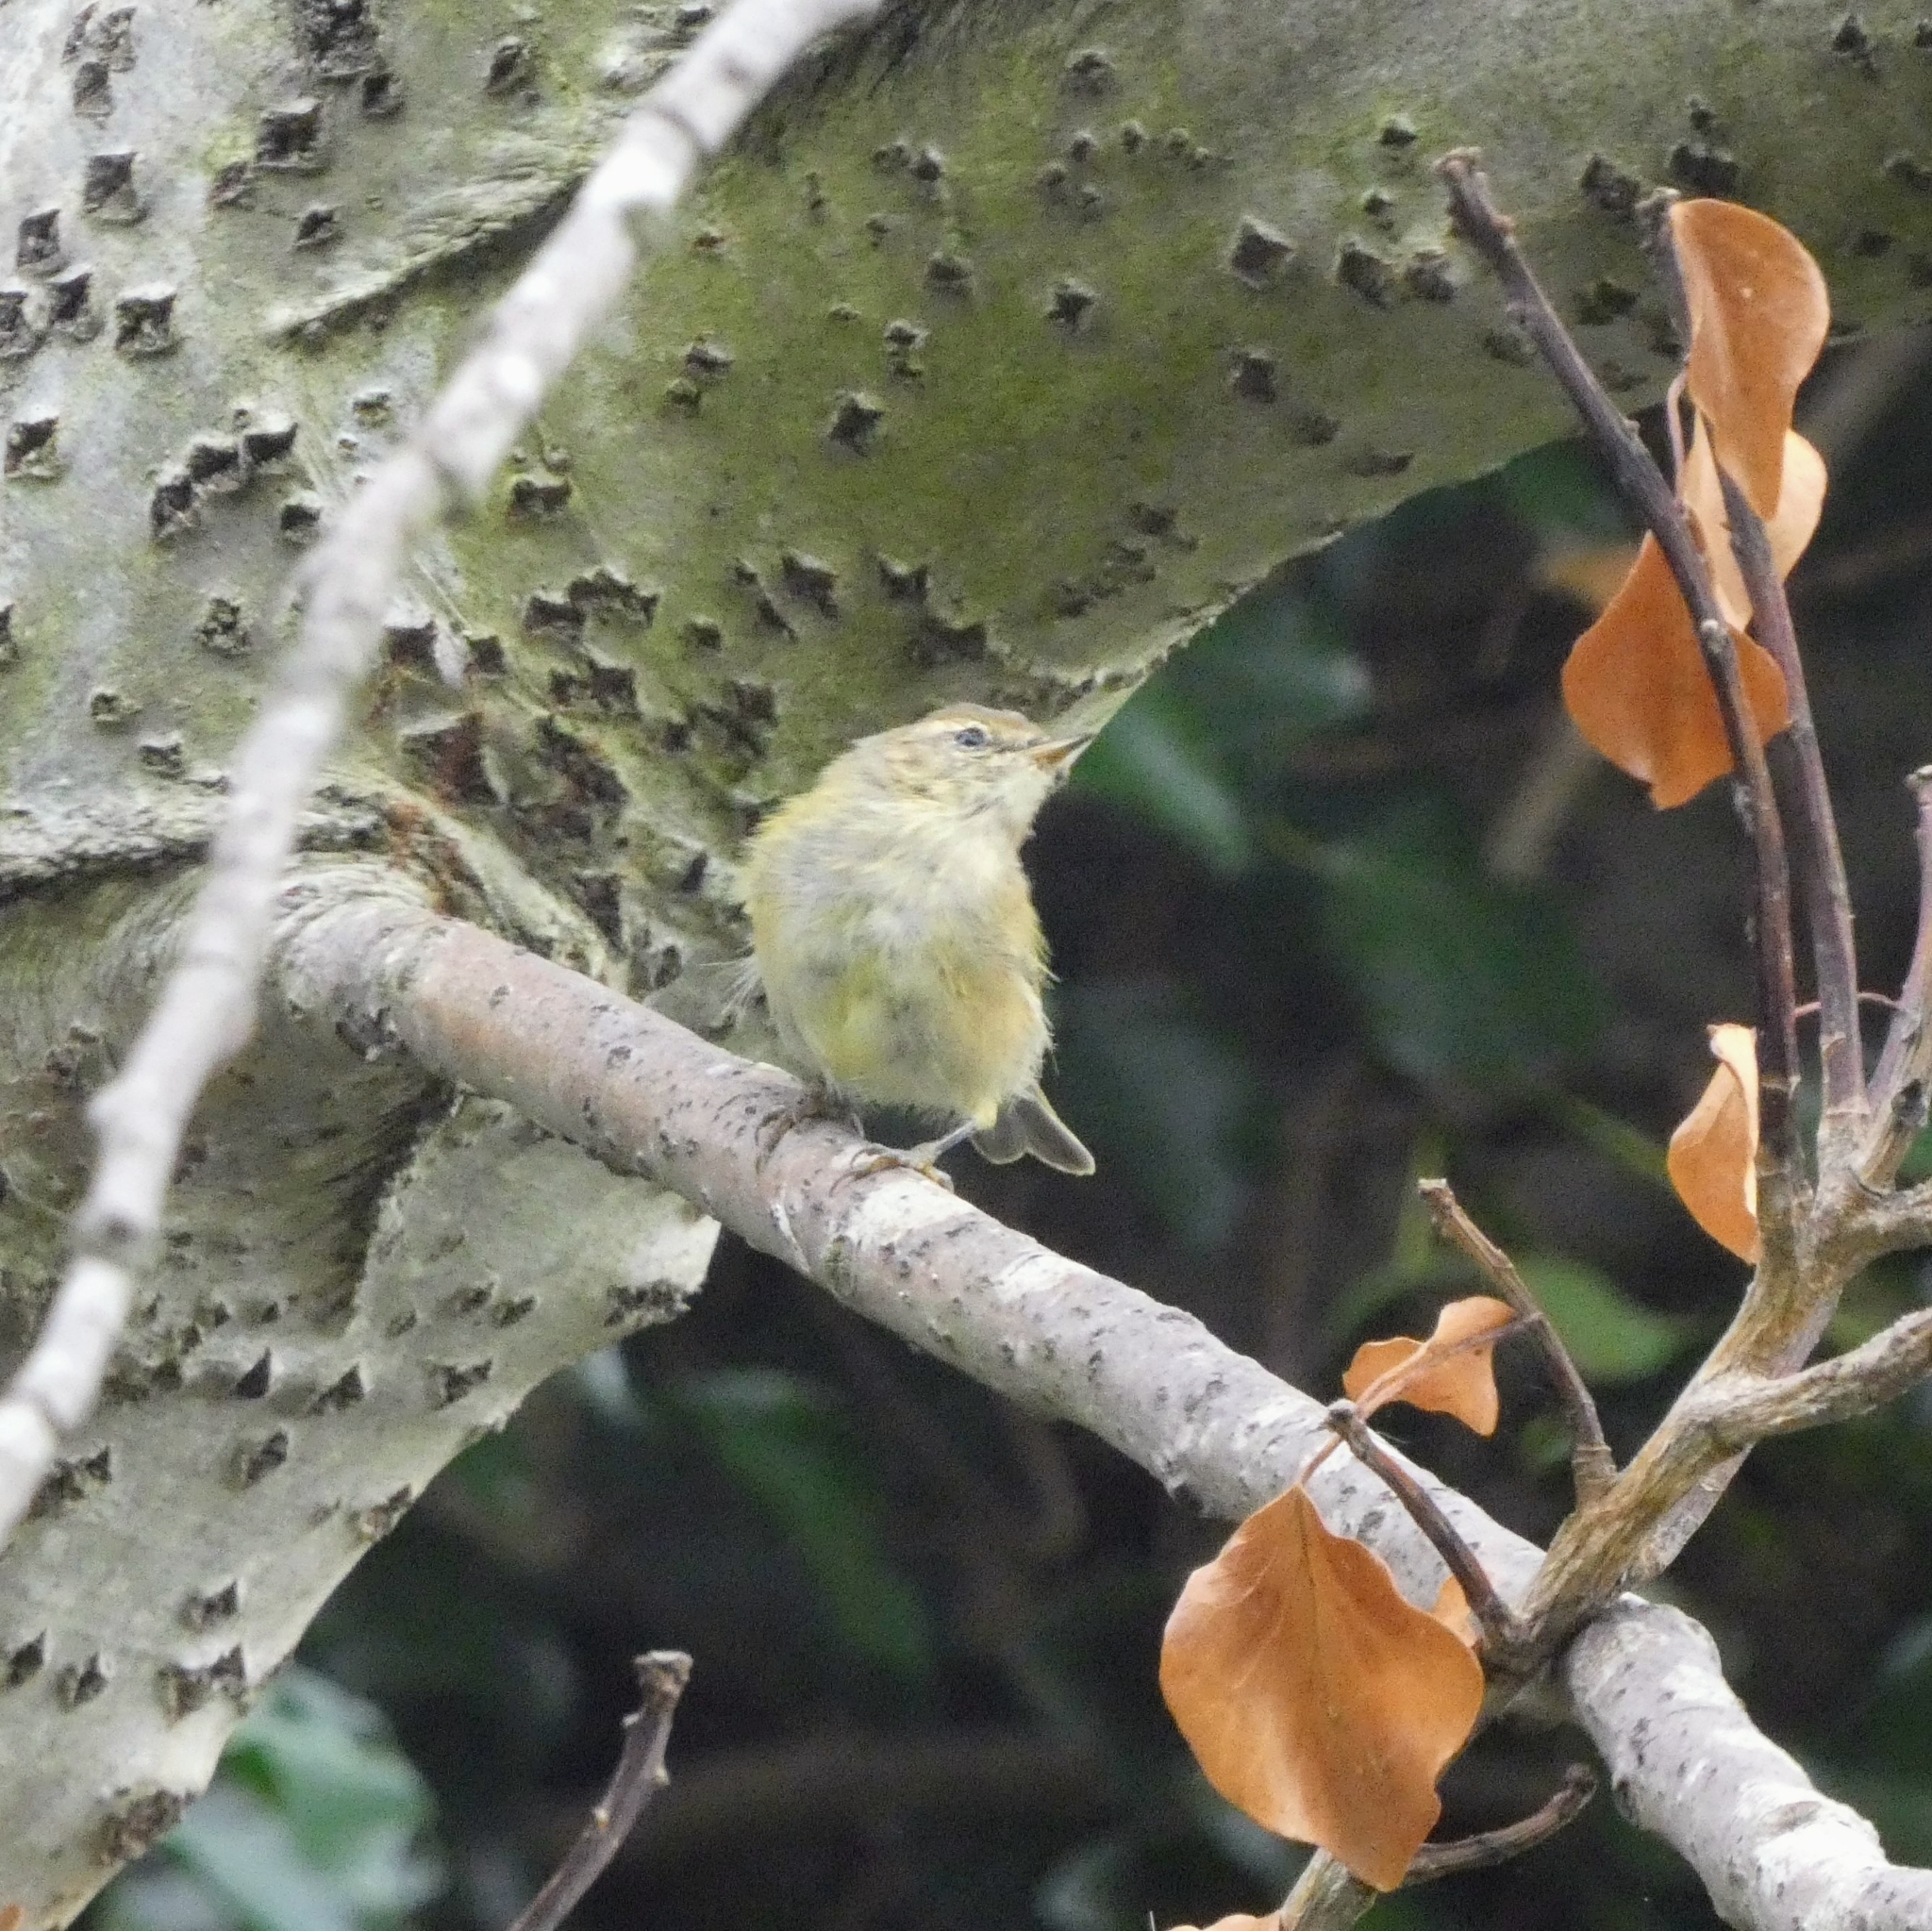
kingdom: Animalia
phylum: Chordata
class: Aves
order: Passeriformes
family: Phylloscopidae
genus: Phylloscopus
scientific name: Phylloscopus collybita
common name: Common chiffchaff
